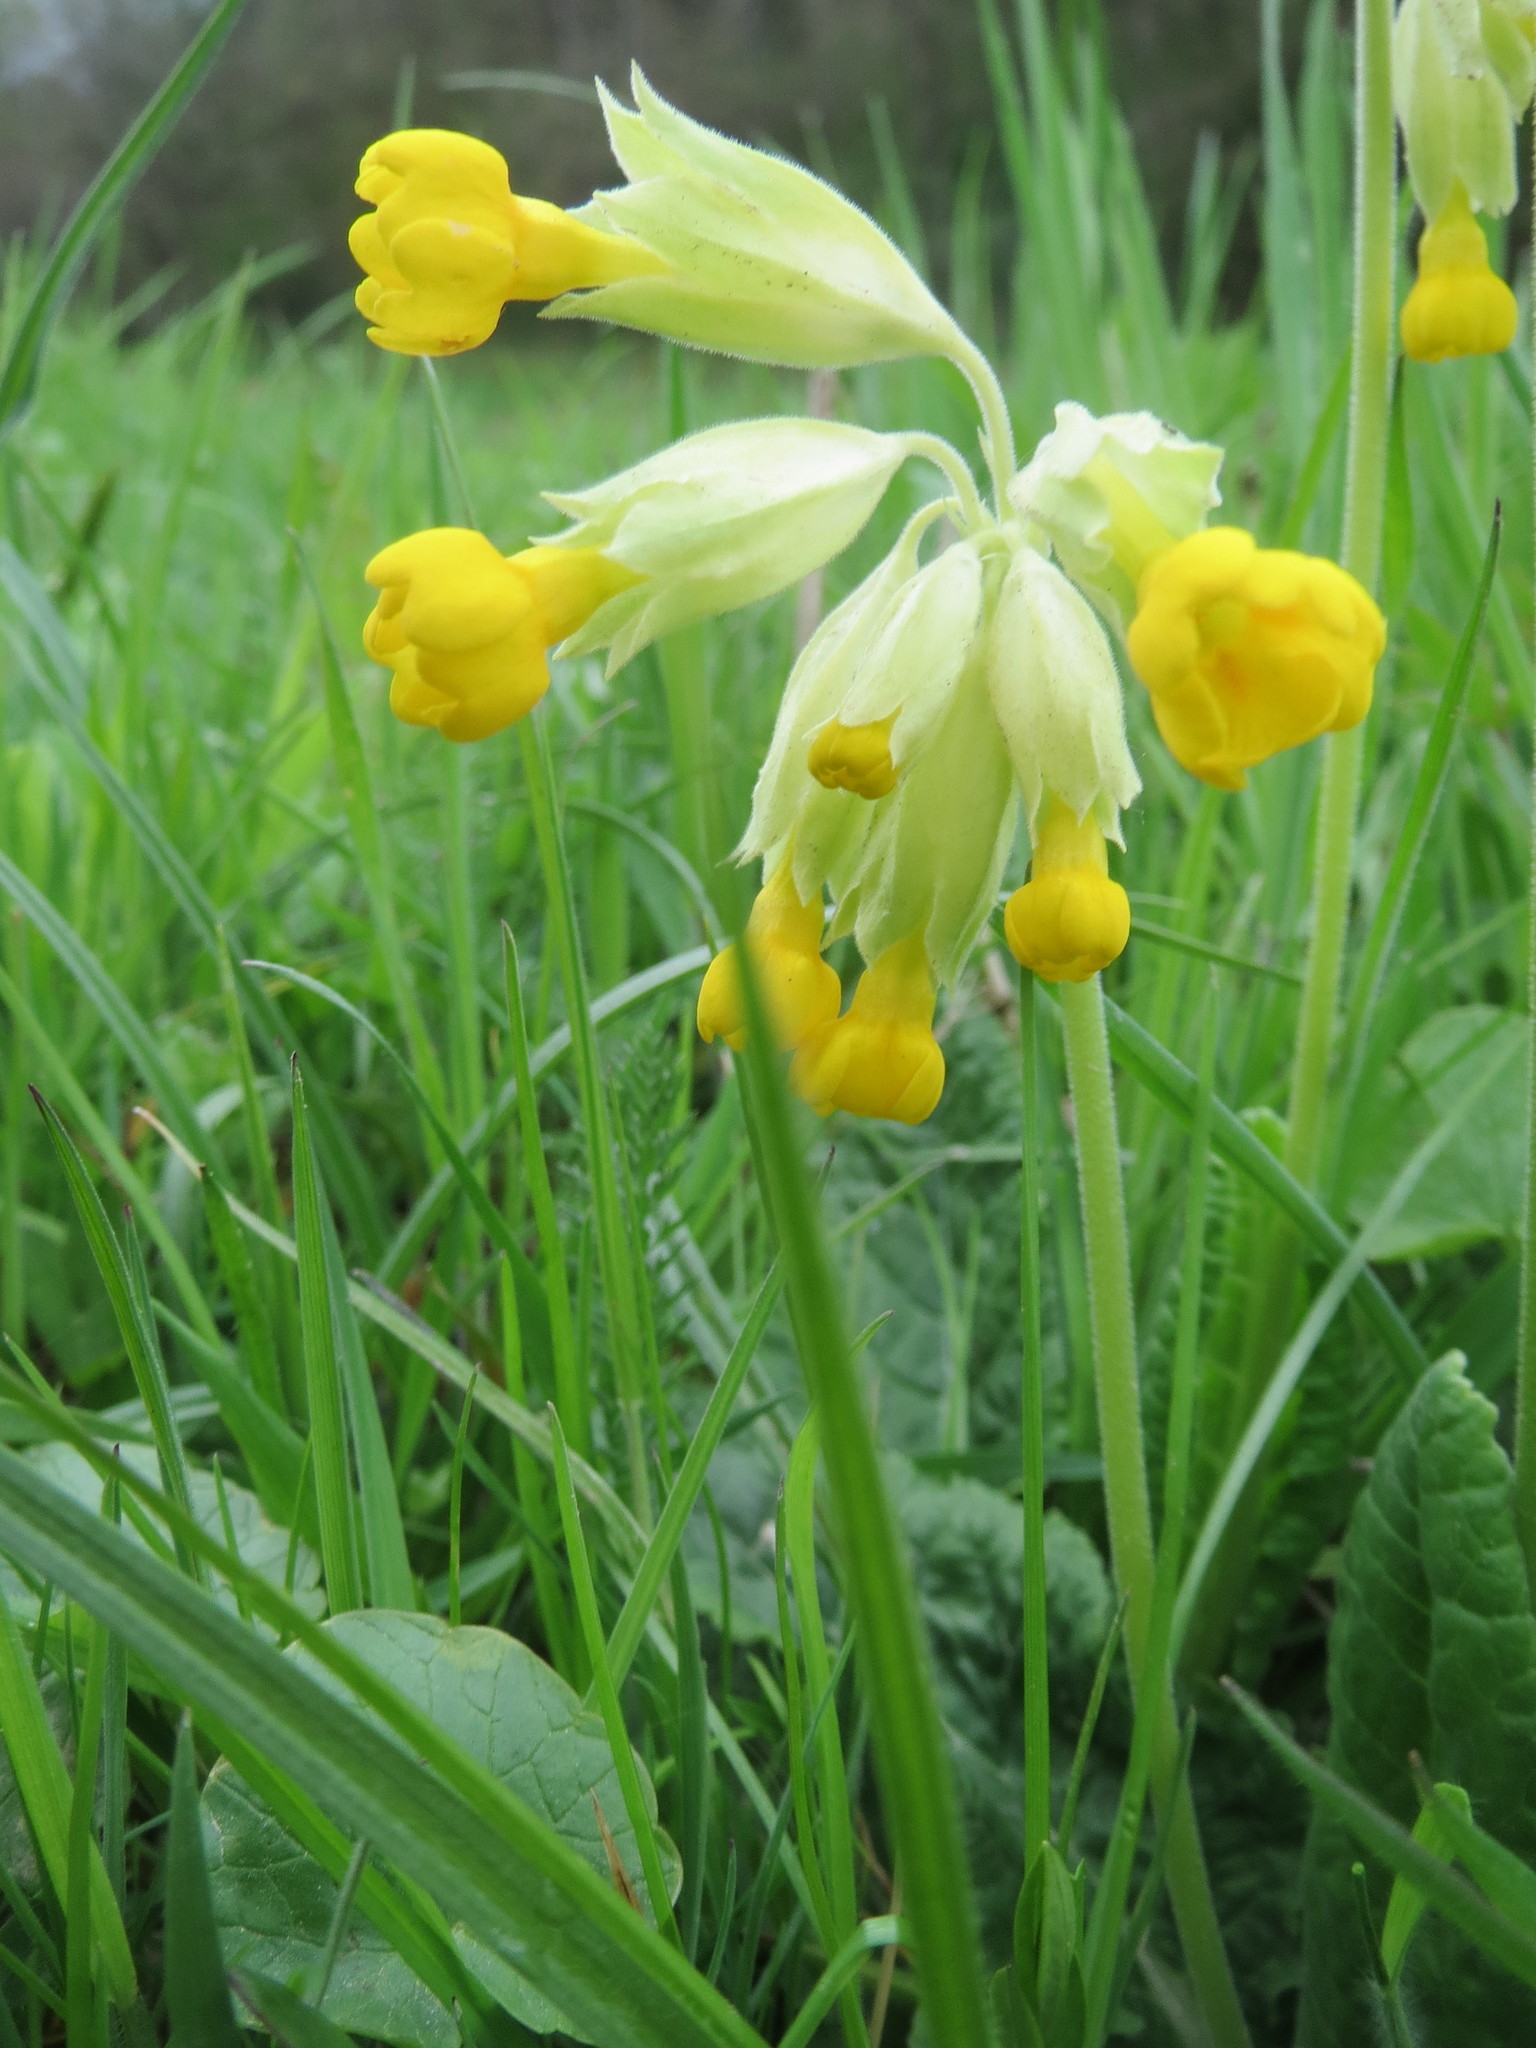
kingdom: Plantae
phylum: Tracheophyta
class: Magnoliopsida
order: Ericales
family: Primulaceae
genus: Primula
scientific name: Primula veris
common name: Cowslip
